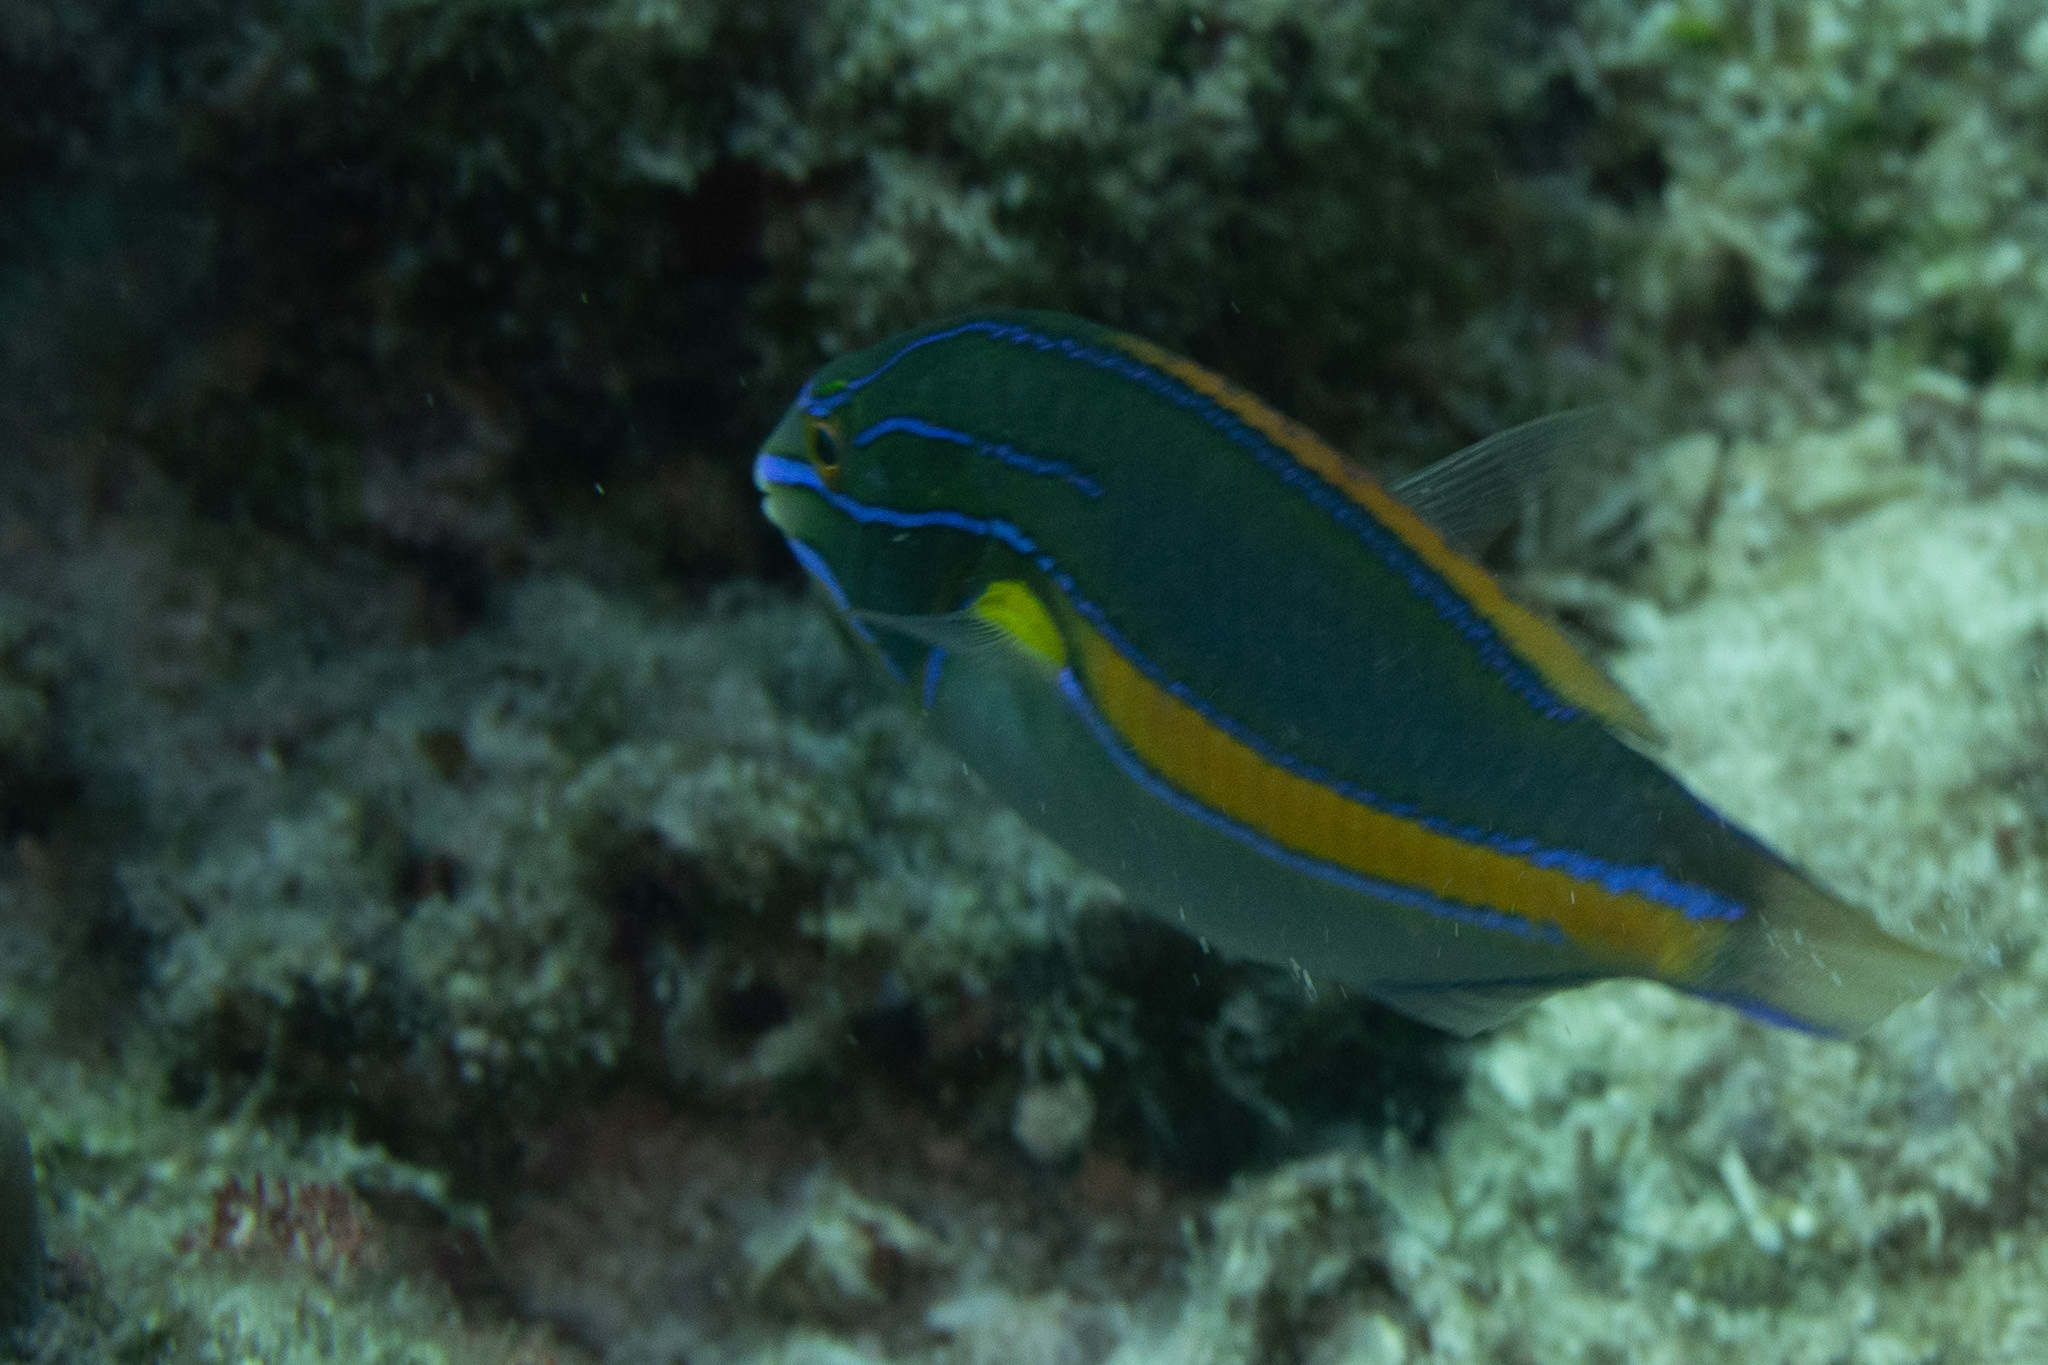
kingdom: Animalia
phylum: Chordata
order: Perciformes
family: Labridae
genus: Stethojulis
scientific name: Stethojulis balteata
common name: Belted wrasse
